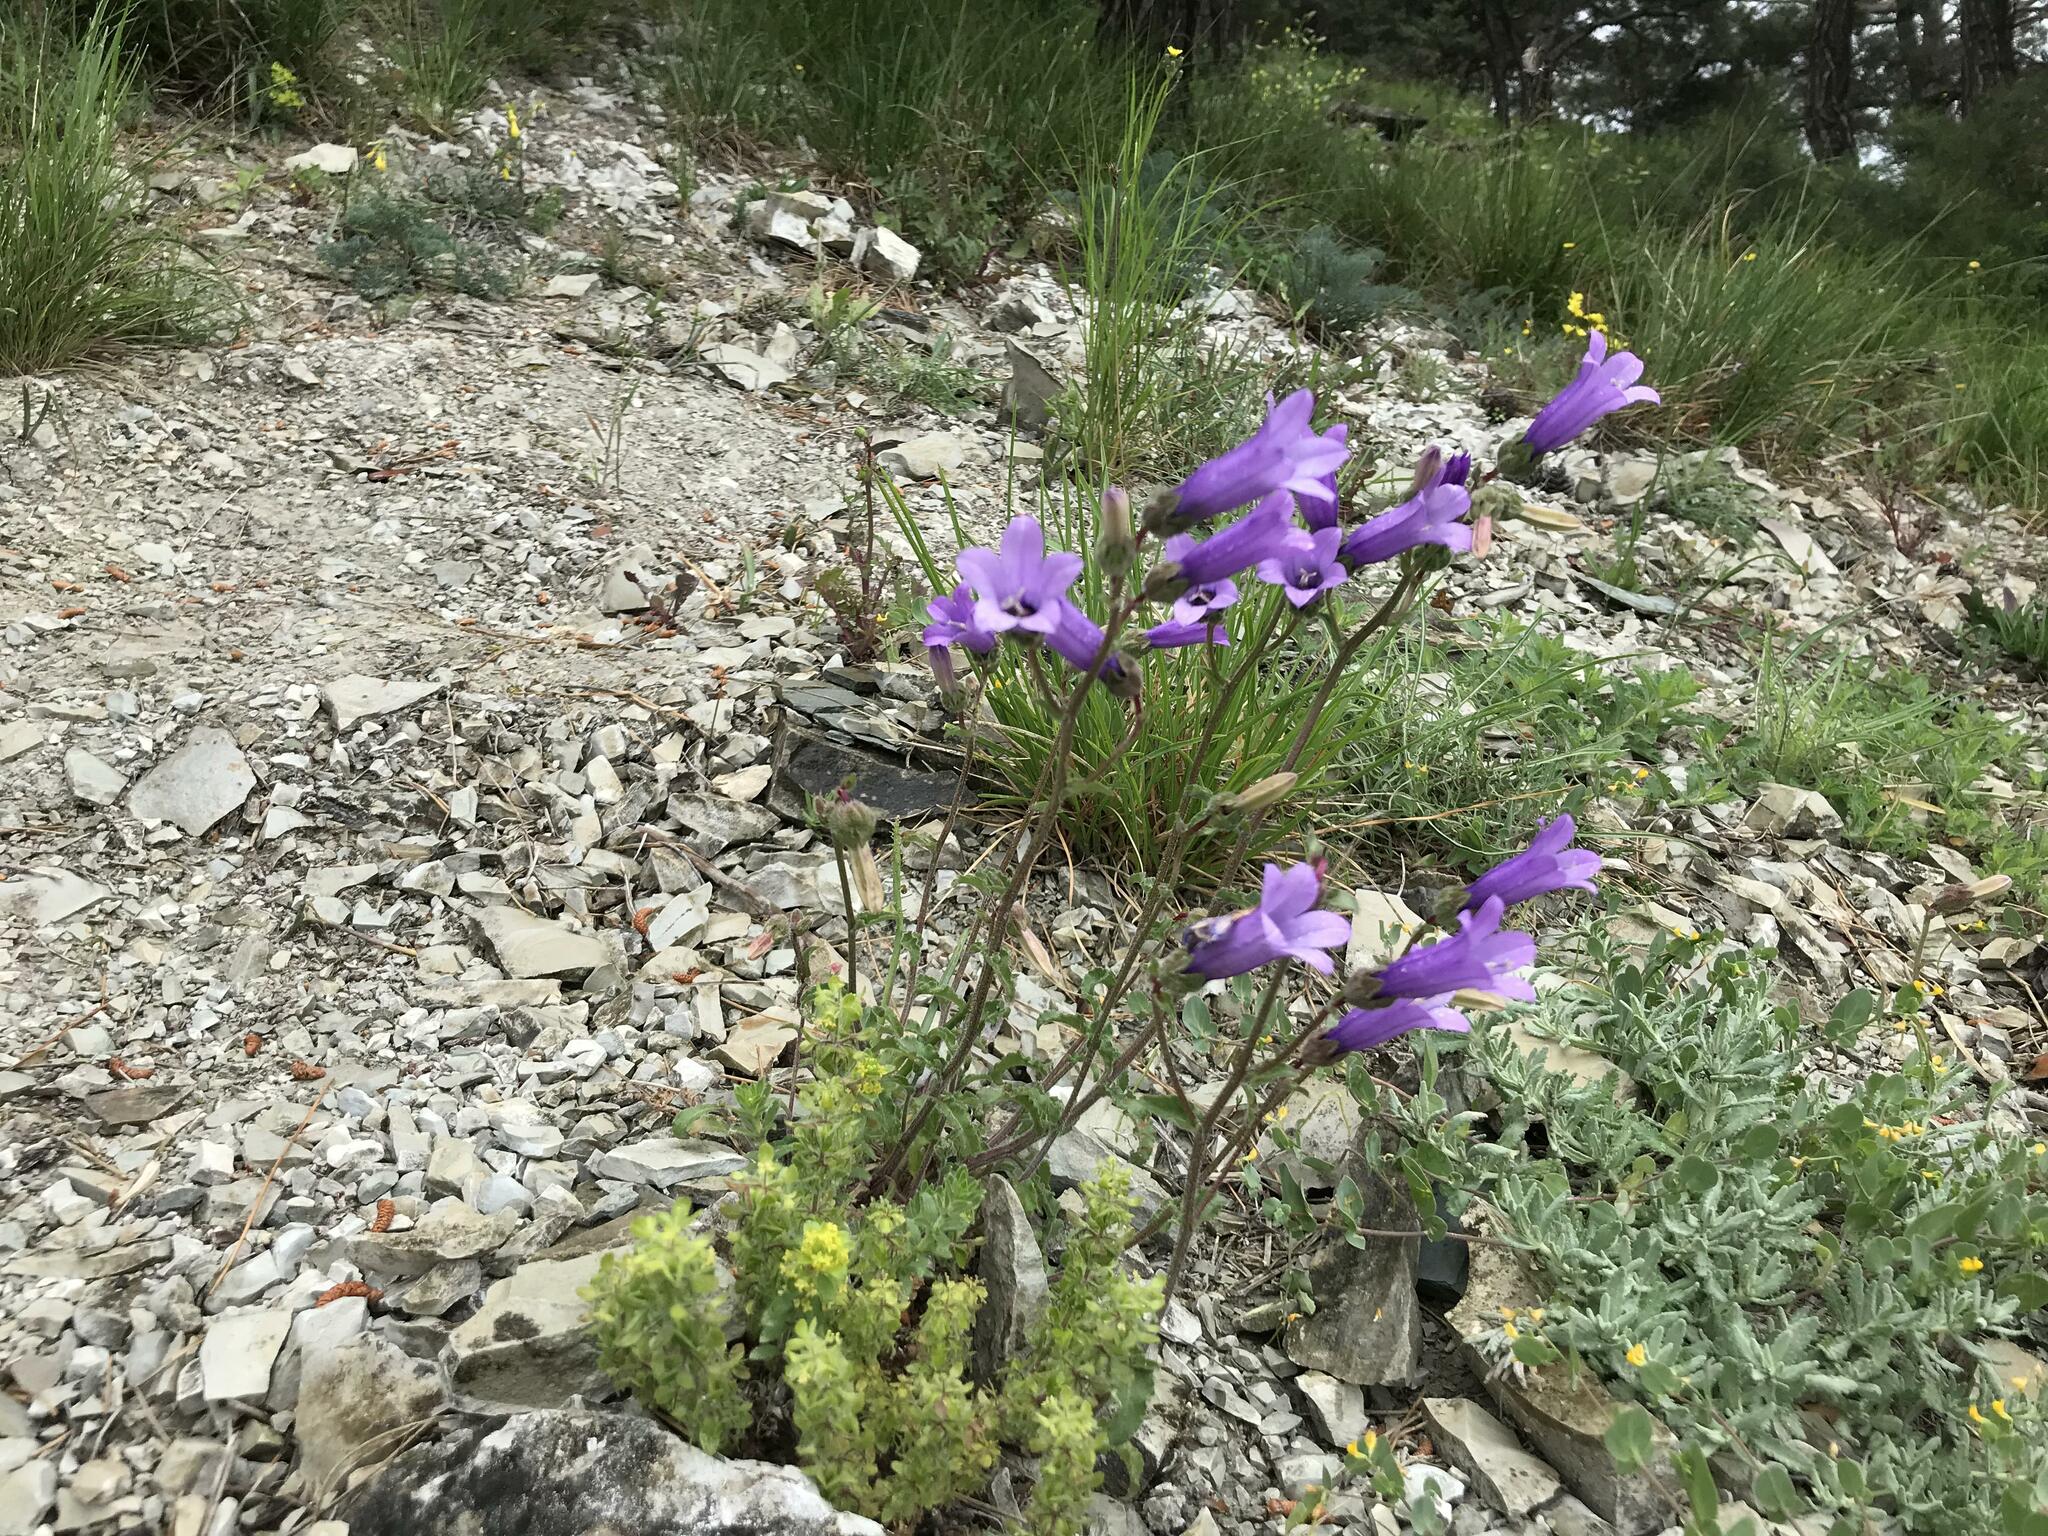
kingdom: Plantae
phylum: Tracheophyta
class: Magnoliopsida
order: Asterales
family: Campanulaceae
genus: Campanula
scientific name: Campanula komarovii
